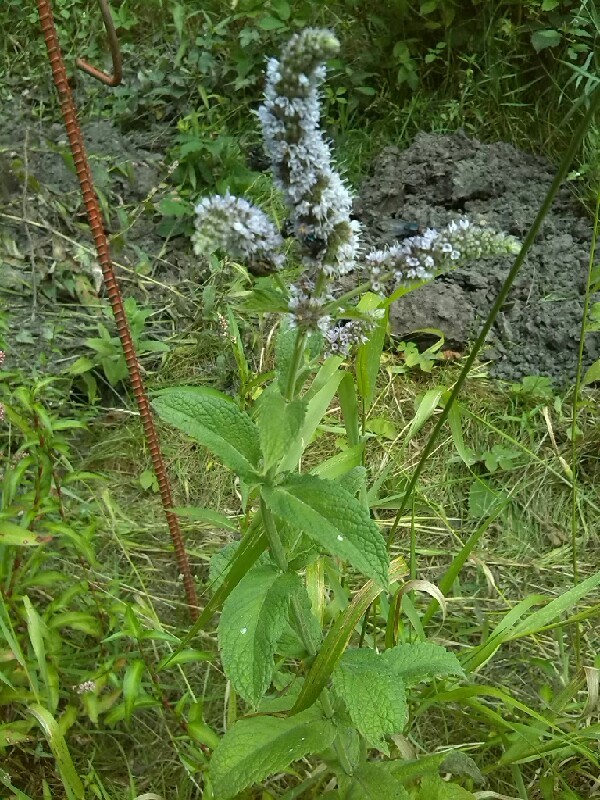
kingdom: Plantae
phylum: Tracheophyta
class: Magnoliopsida
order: Lamiales
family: Lamiaceae
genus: Mentha
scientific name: Mentha longifolia
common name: Horse mint
